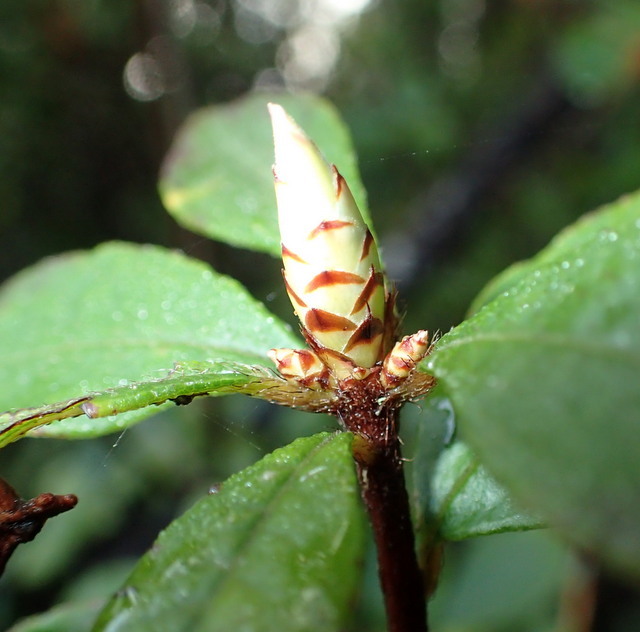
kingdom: Plantae
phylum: Tracheophyta
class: Magnoliopsida
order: Ericales
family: Ericaceae
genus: Rhododendron
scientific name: Rhododendron serrulatum
